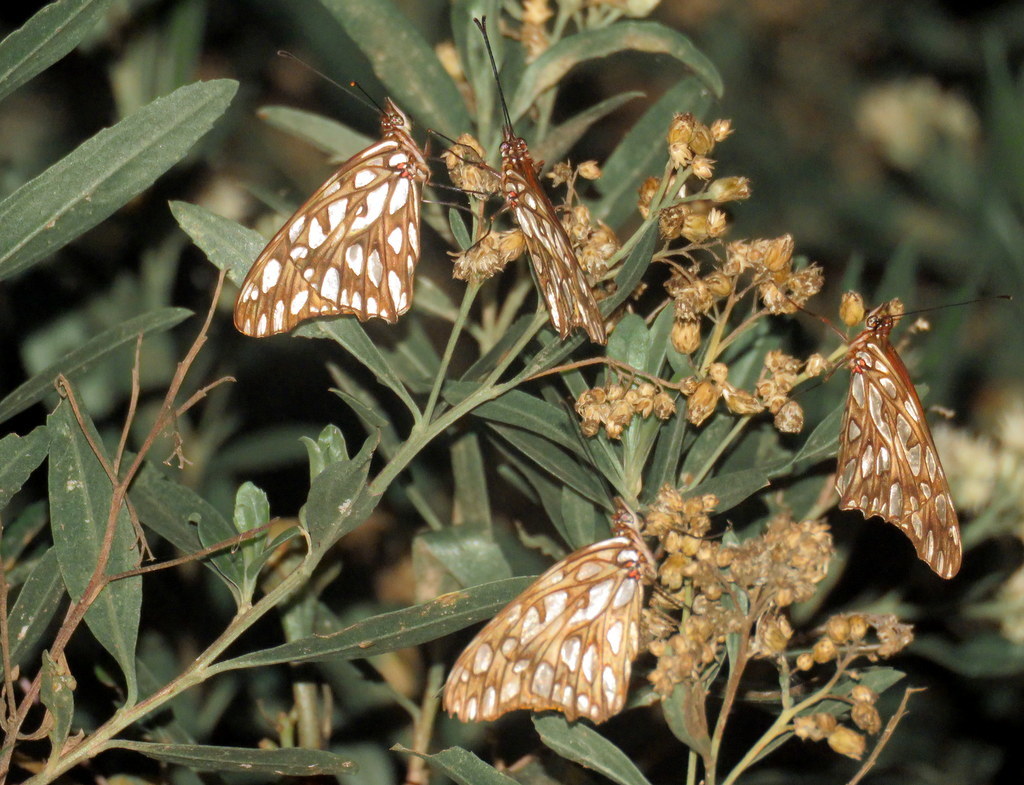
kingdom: Animalia
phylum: Arthropoda
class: Insecta
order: Lepidoptera
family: Nymphalidae
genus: Dione
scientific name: Dione moneta
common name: Mexican silverspot
